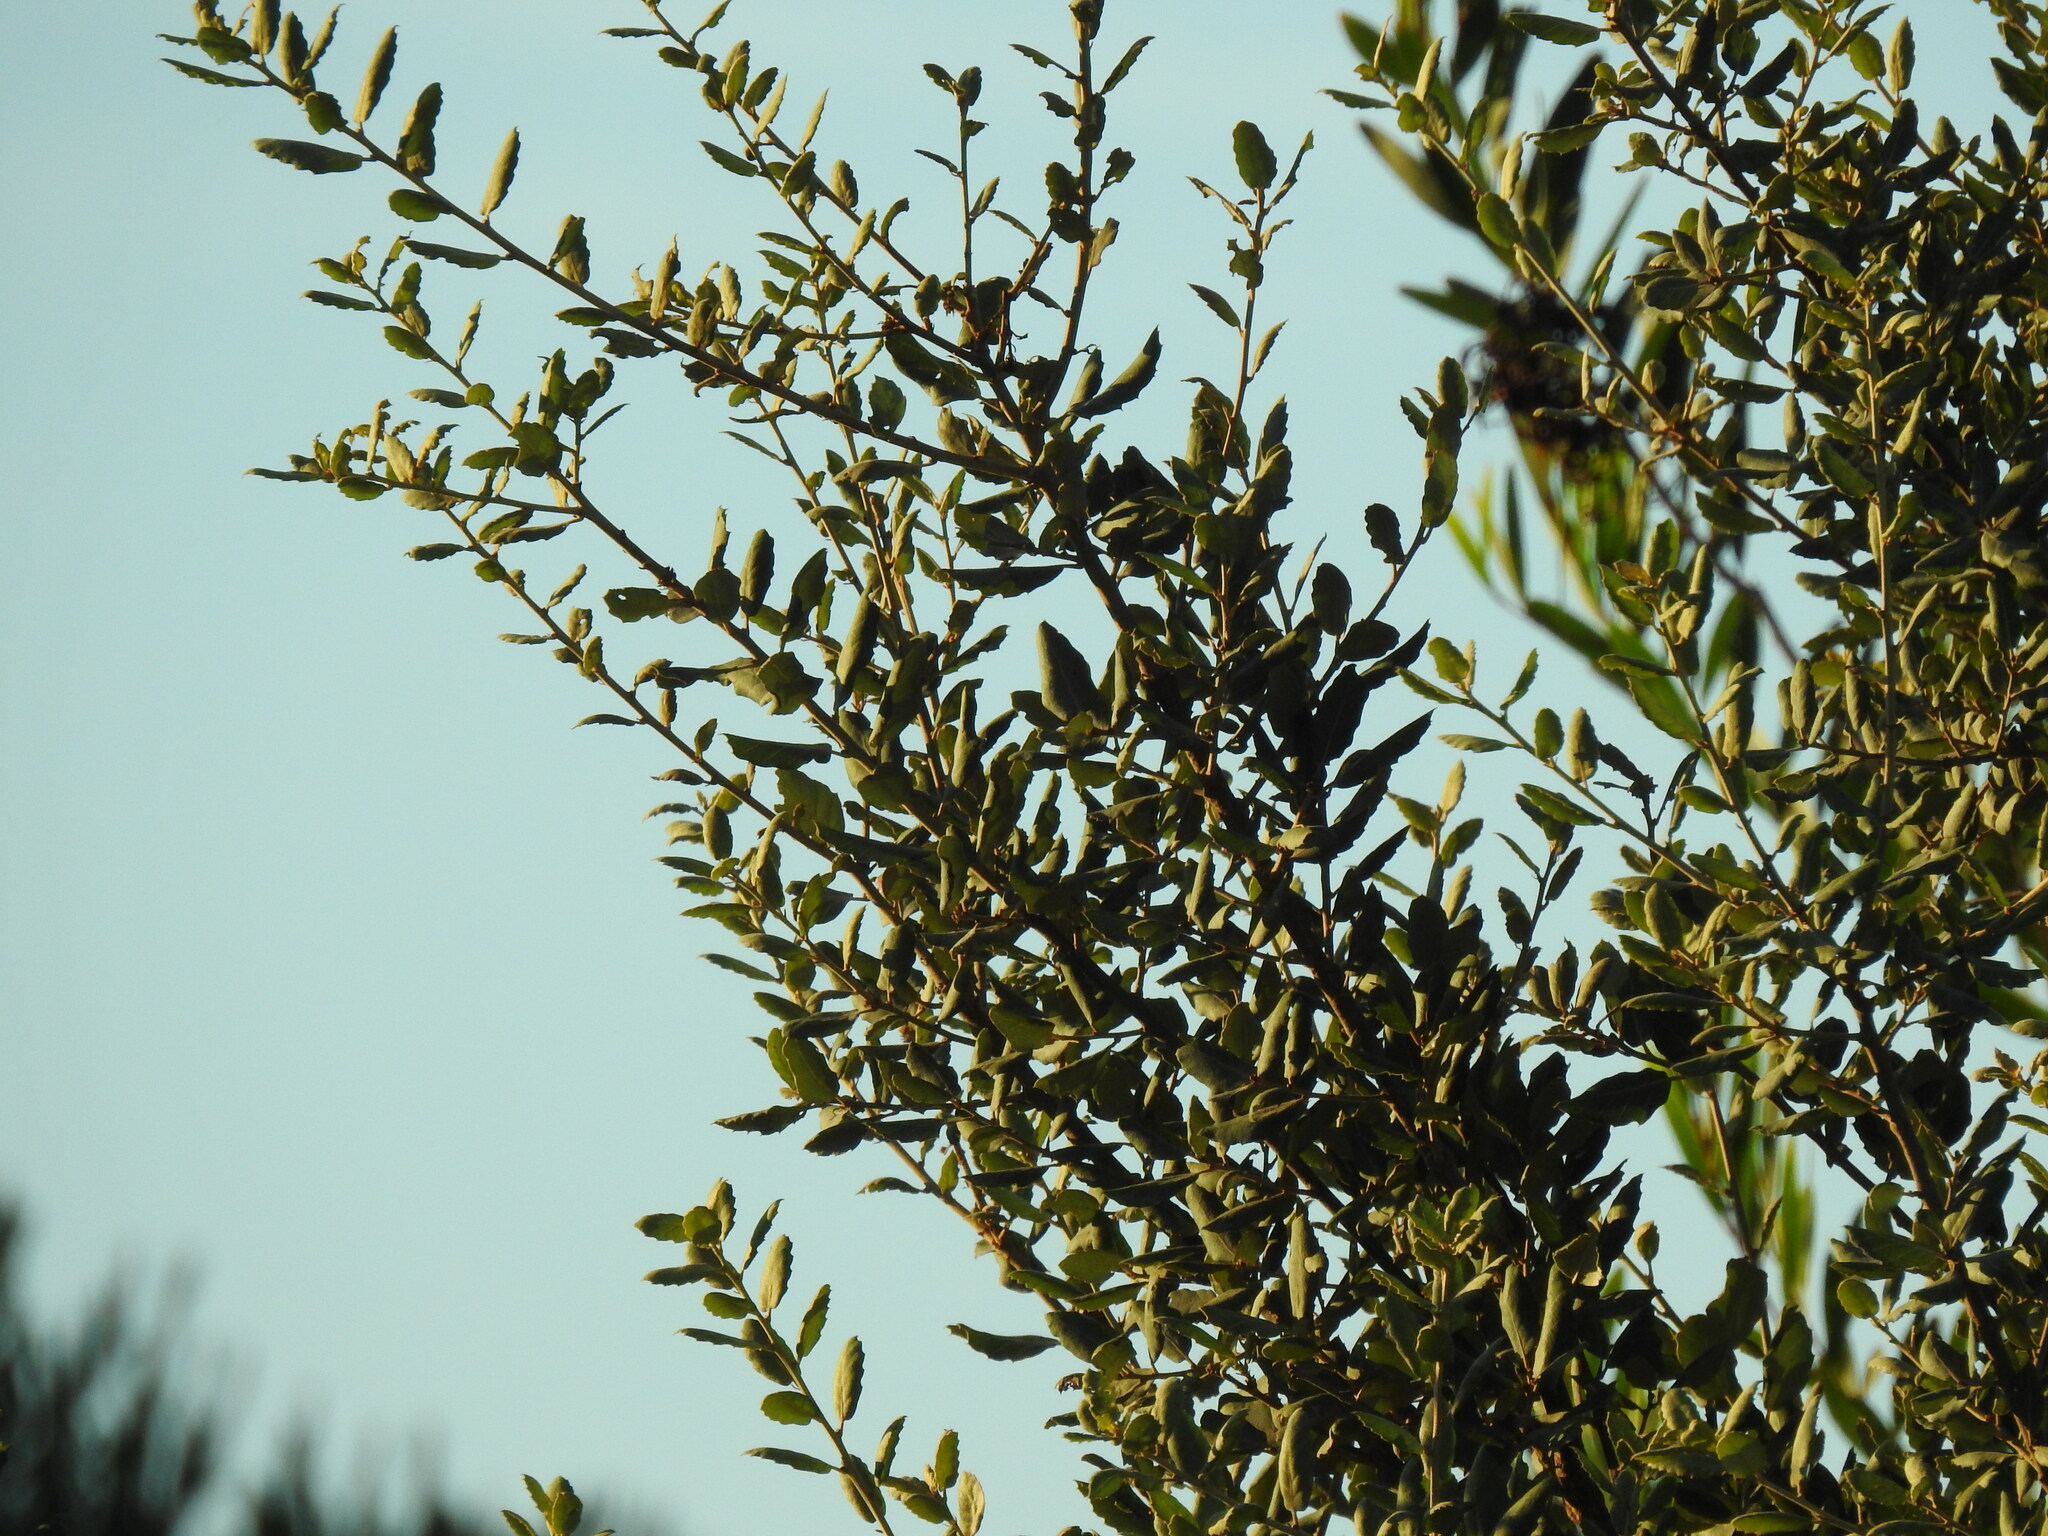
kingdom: Plantae
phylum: Tracheophyta
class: Magnoliopsida
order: Fagales
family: Fagaceae
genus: Quercus
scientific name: Quercus suber
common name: Cork oak
